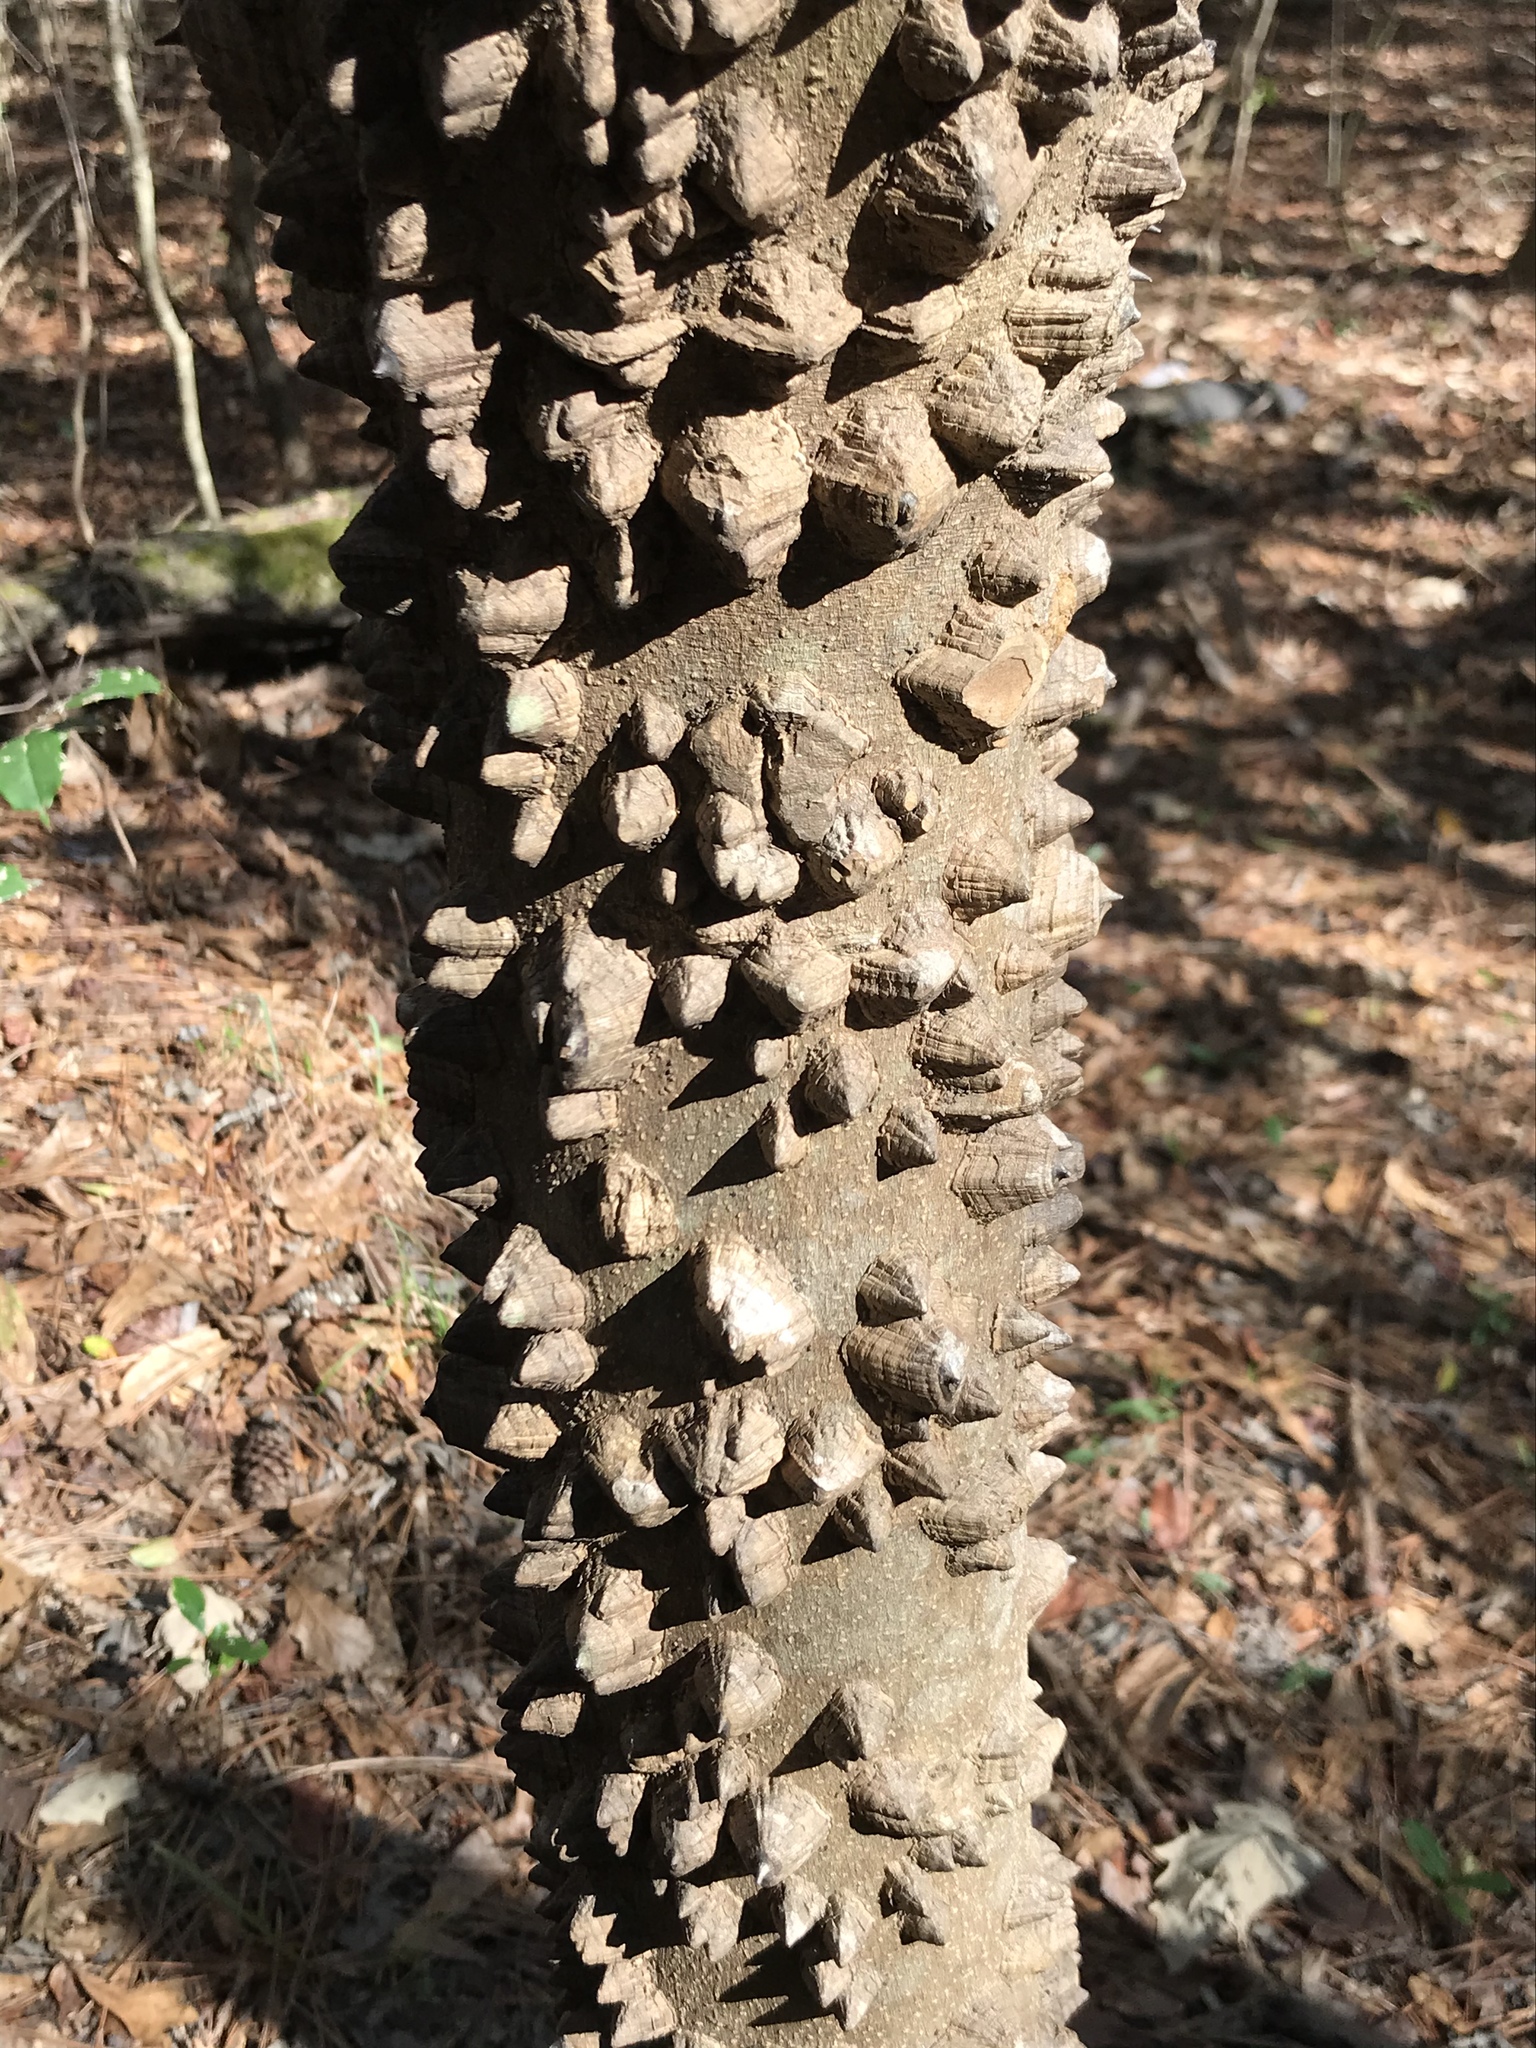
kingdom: Plantae
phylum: Tracheophyta
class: Magnoliopsida
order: Sapindales
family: Rutaceae
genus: Zanthoxylum
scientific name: Zanthoxylum clava-herculis
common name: Hercules'-club
